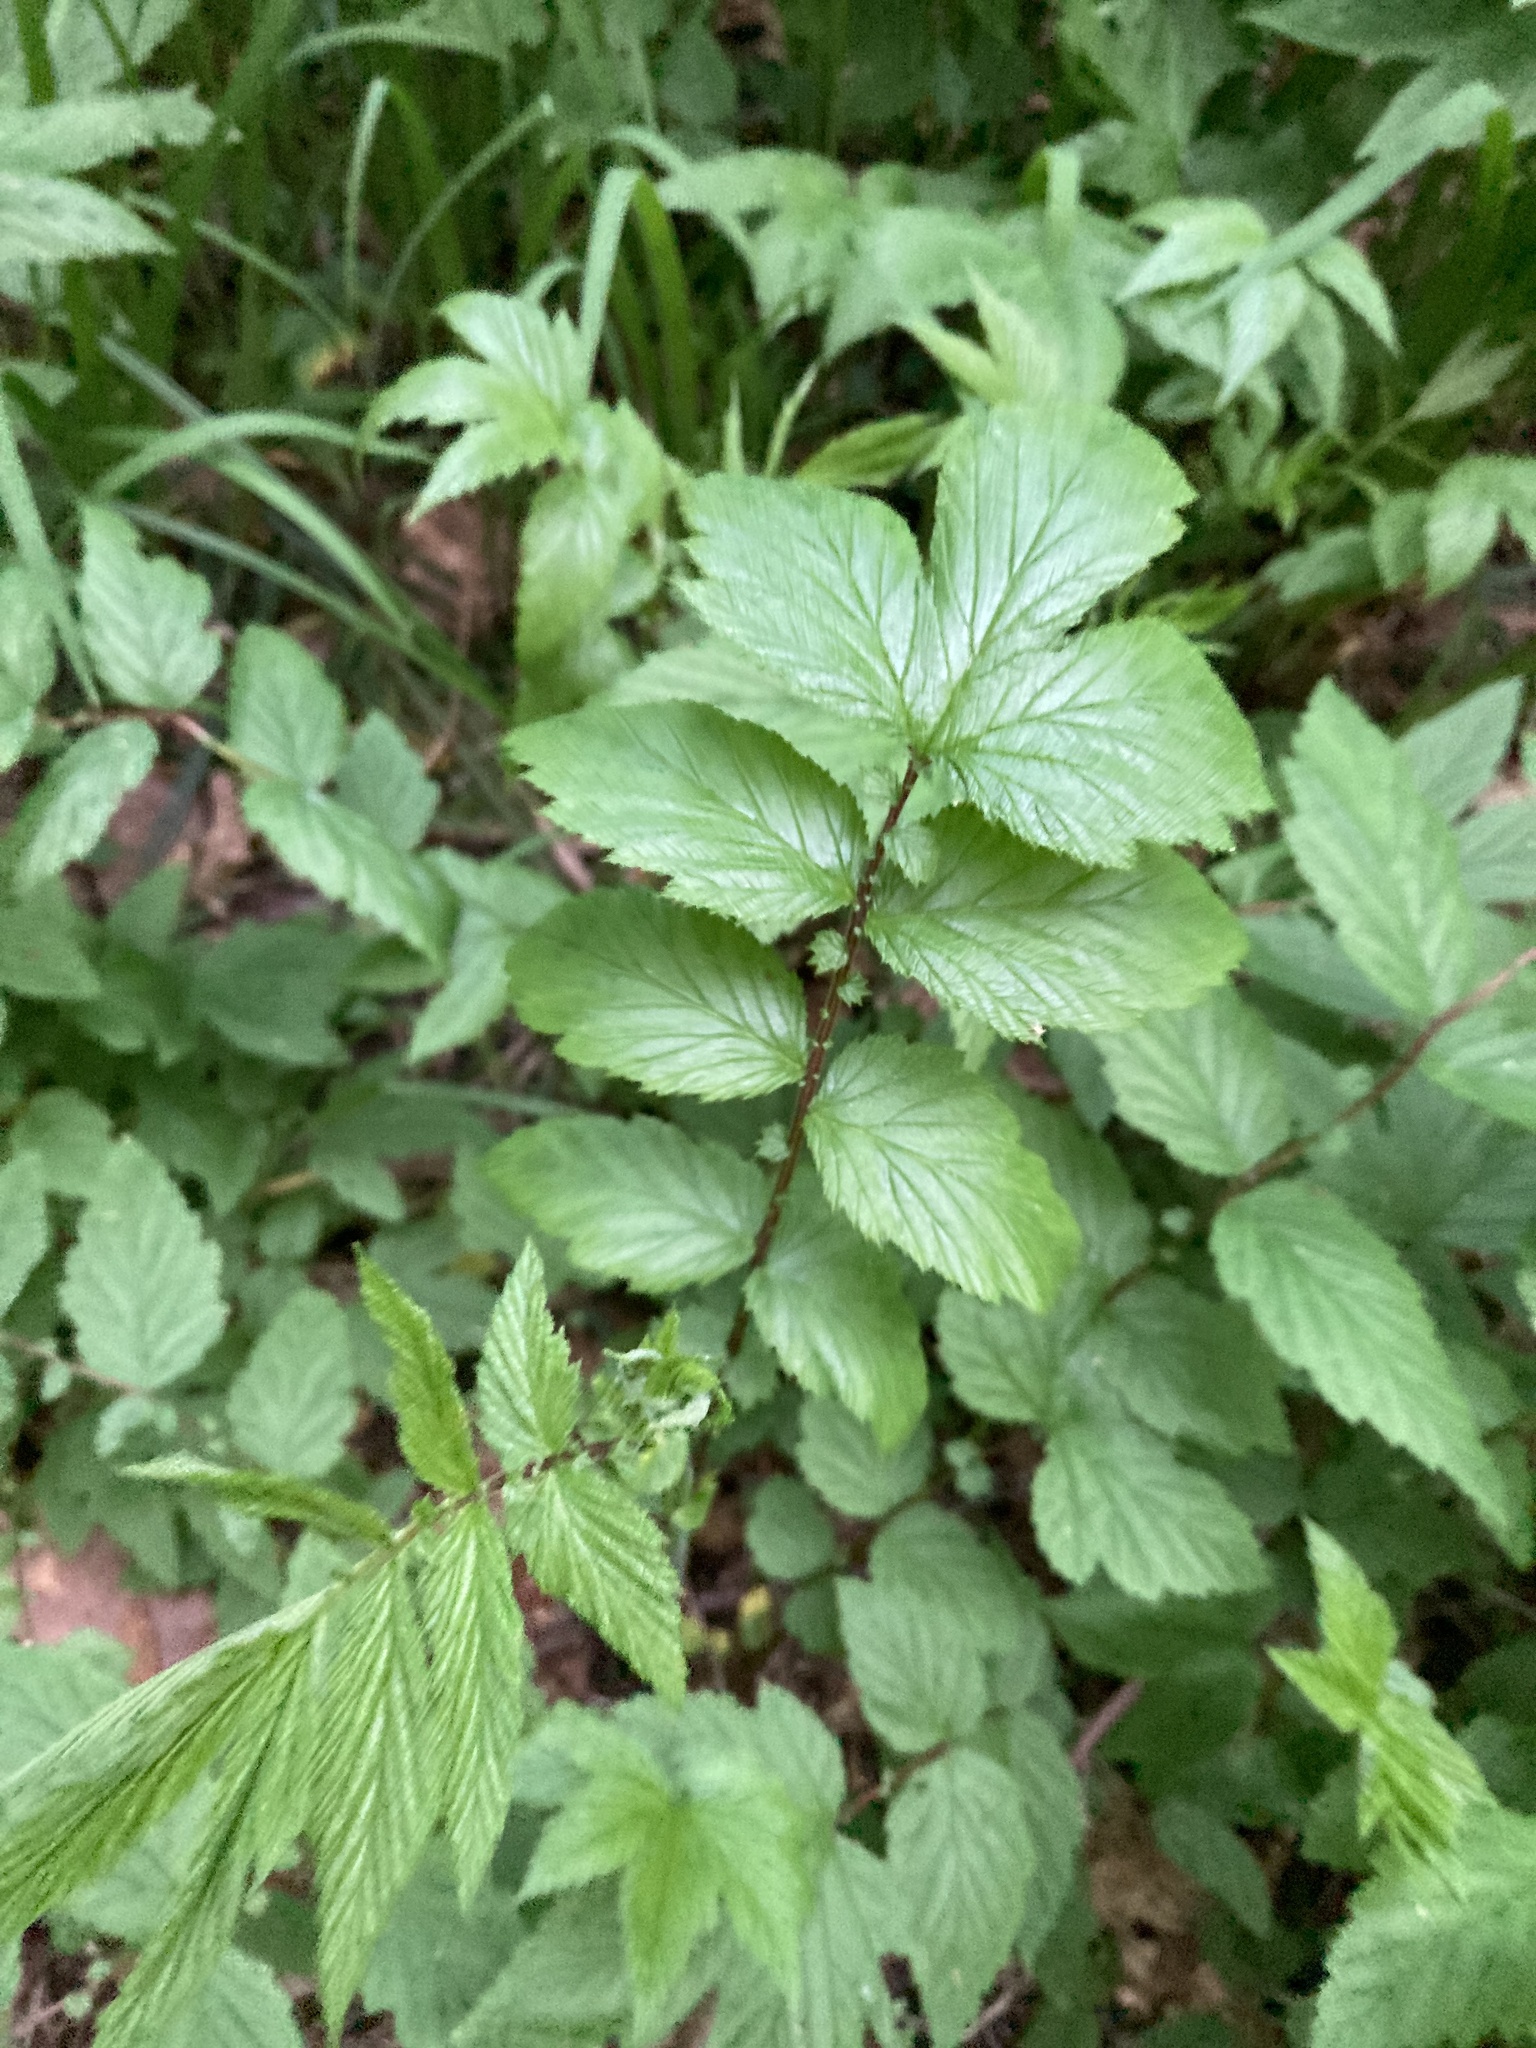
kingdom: Plantae
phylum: Tracheophyta
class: Magnoliopsida
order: Rosales
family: Rosaceae
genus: Filipendula
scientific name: Filipendula ulmaria
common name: Meadowsweet
